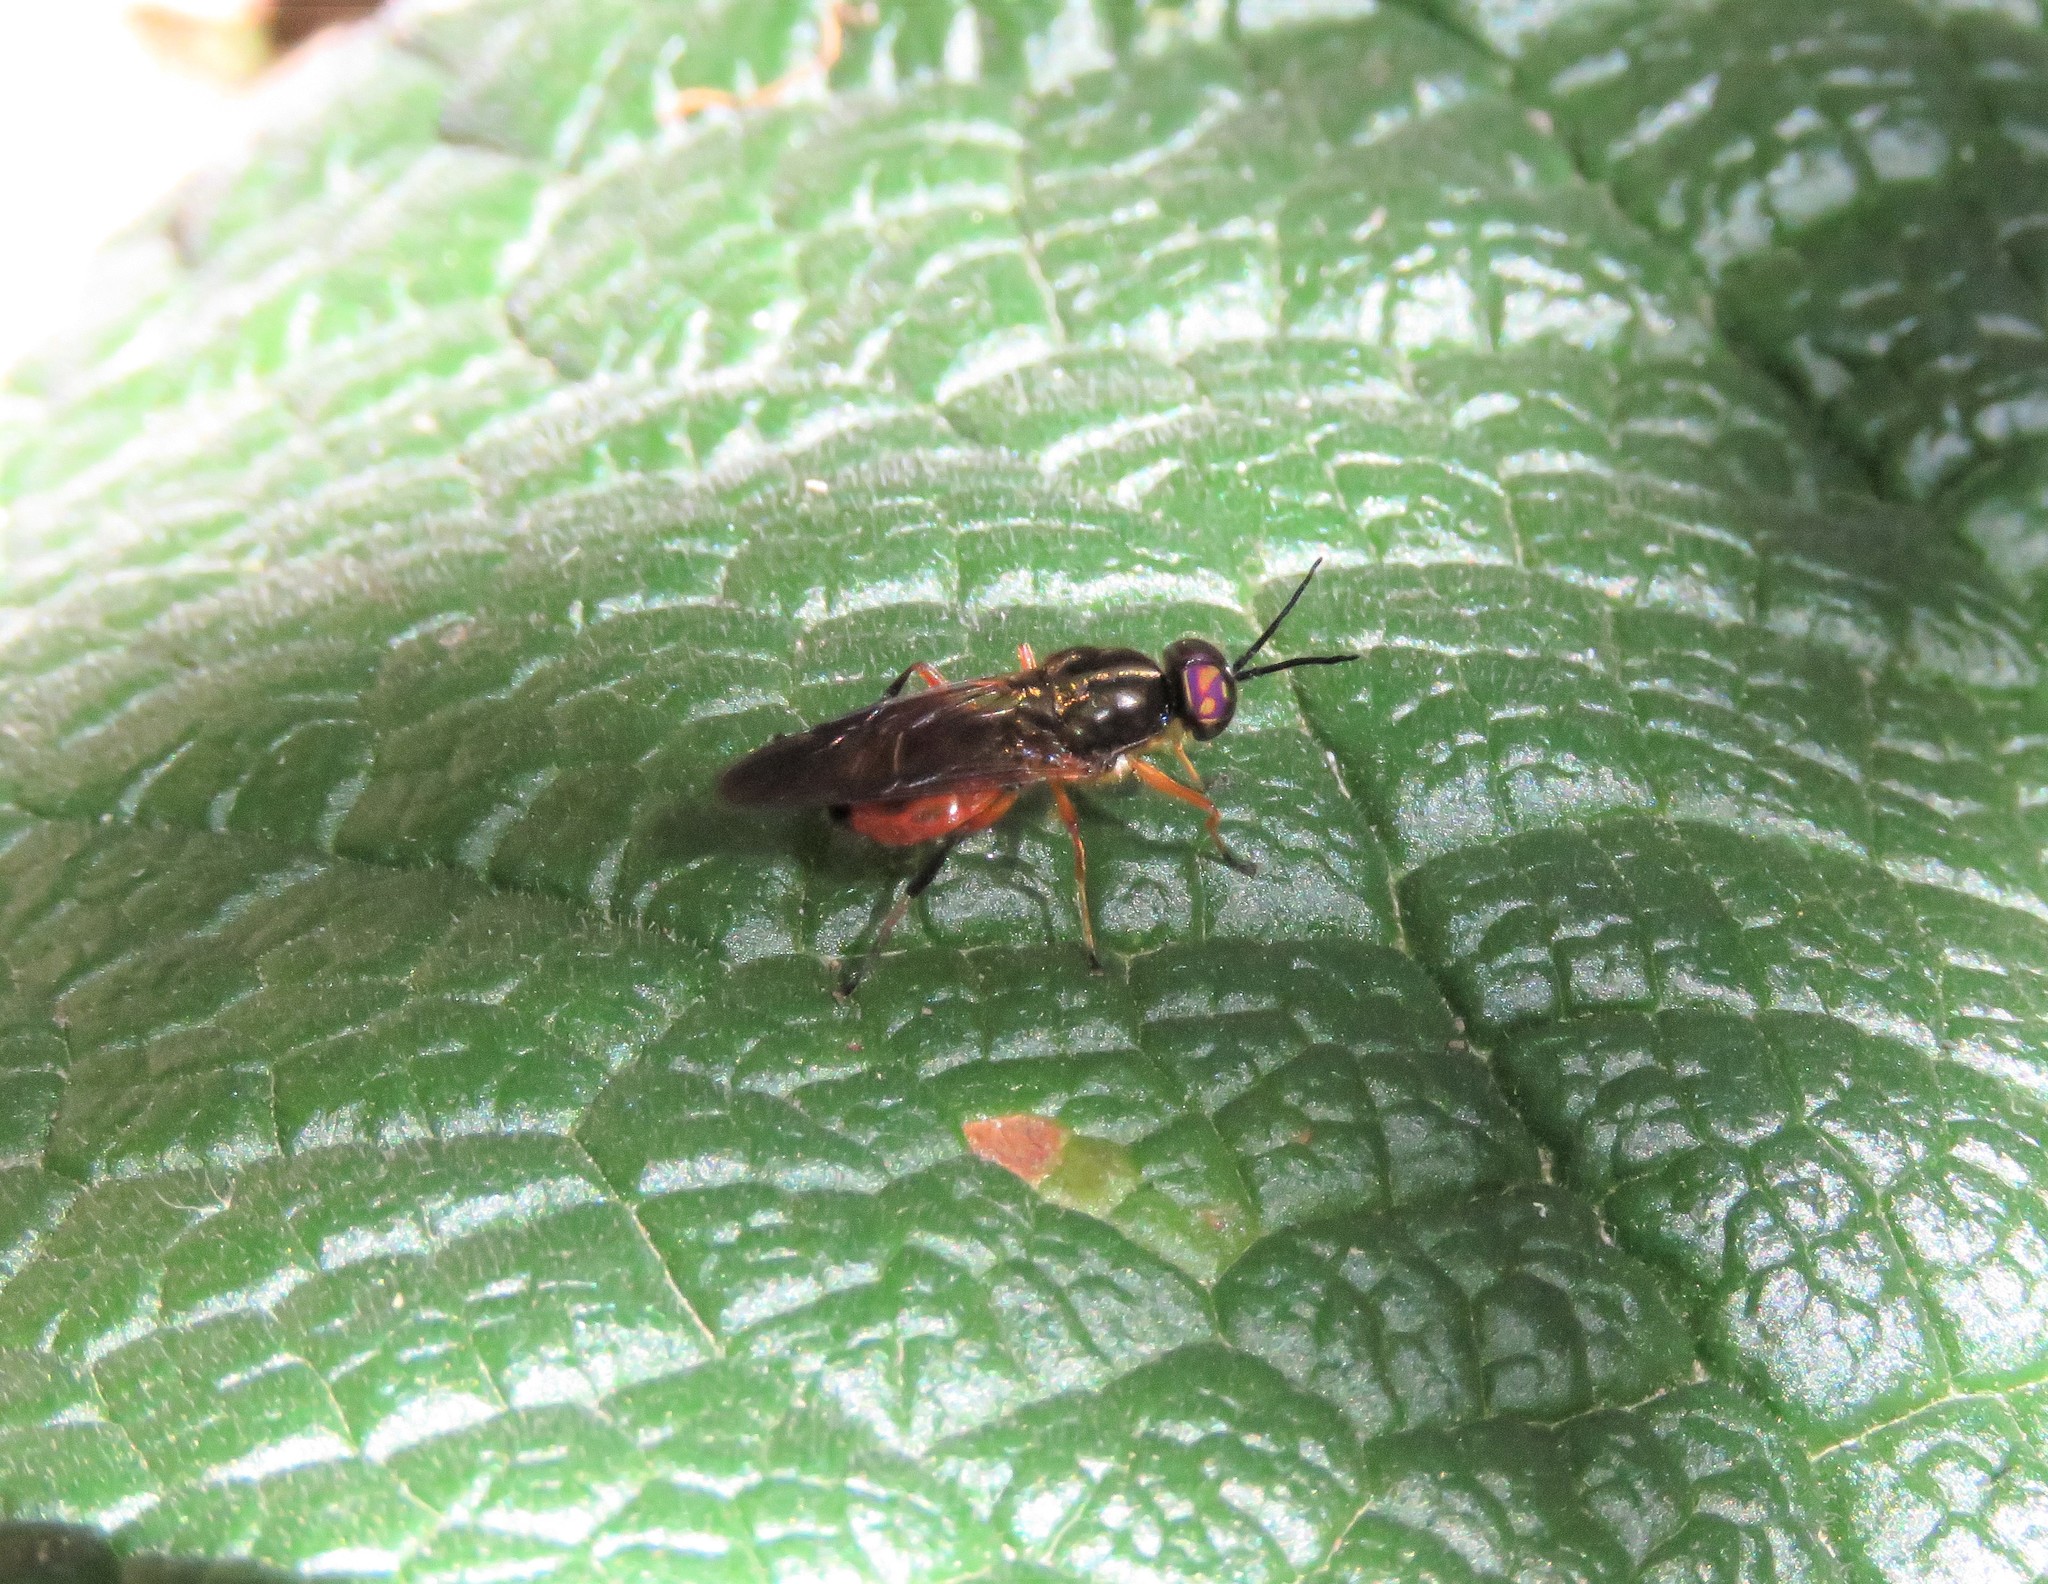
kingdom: Animalia
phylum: Arthropoda
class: Insecta
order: Diptera
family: Stratiomyidae
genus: Cyphomyia
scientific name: Cyphomyia dispar
